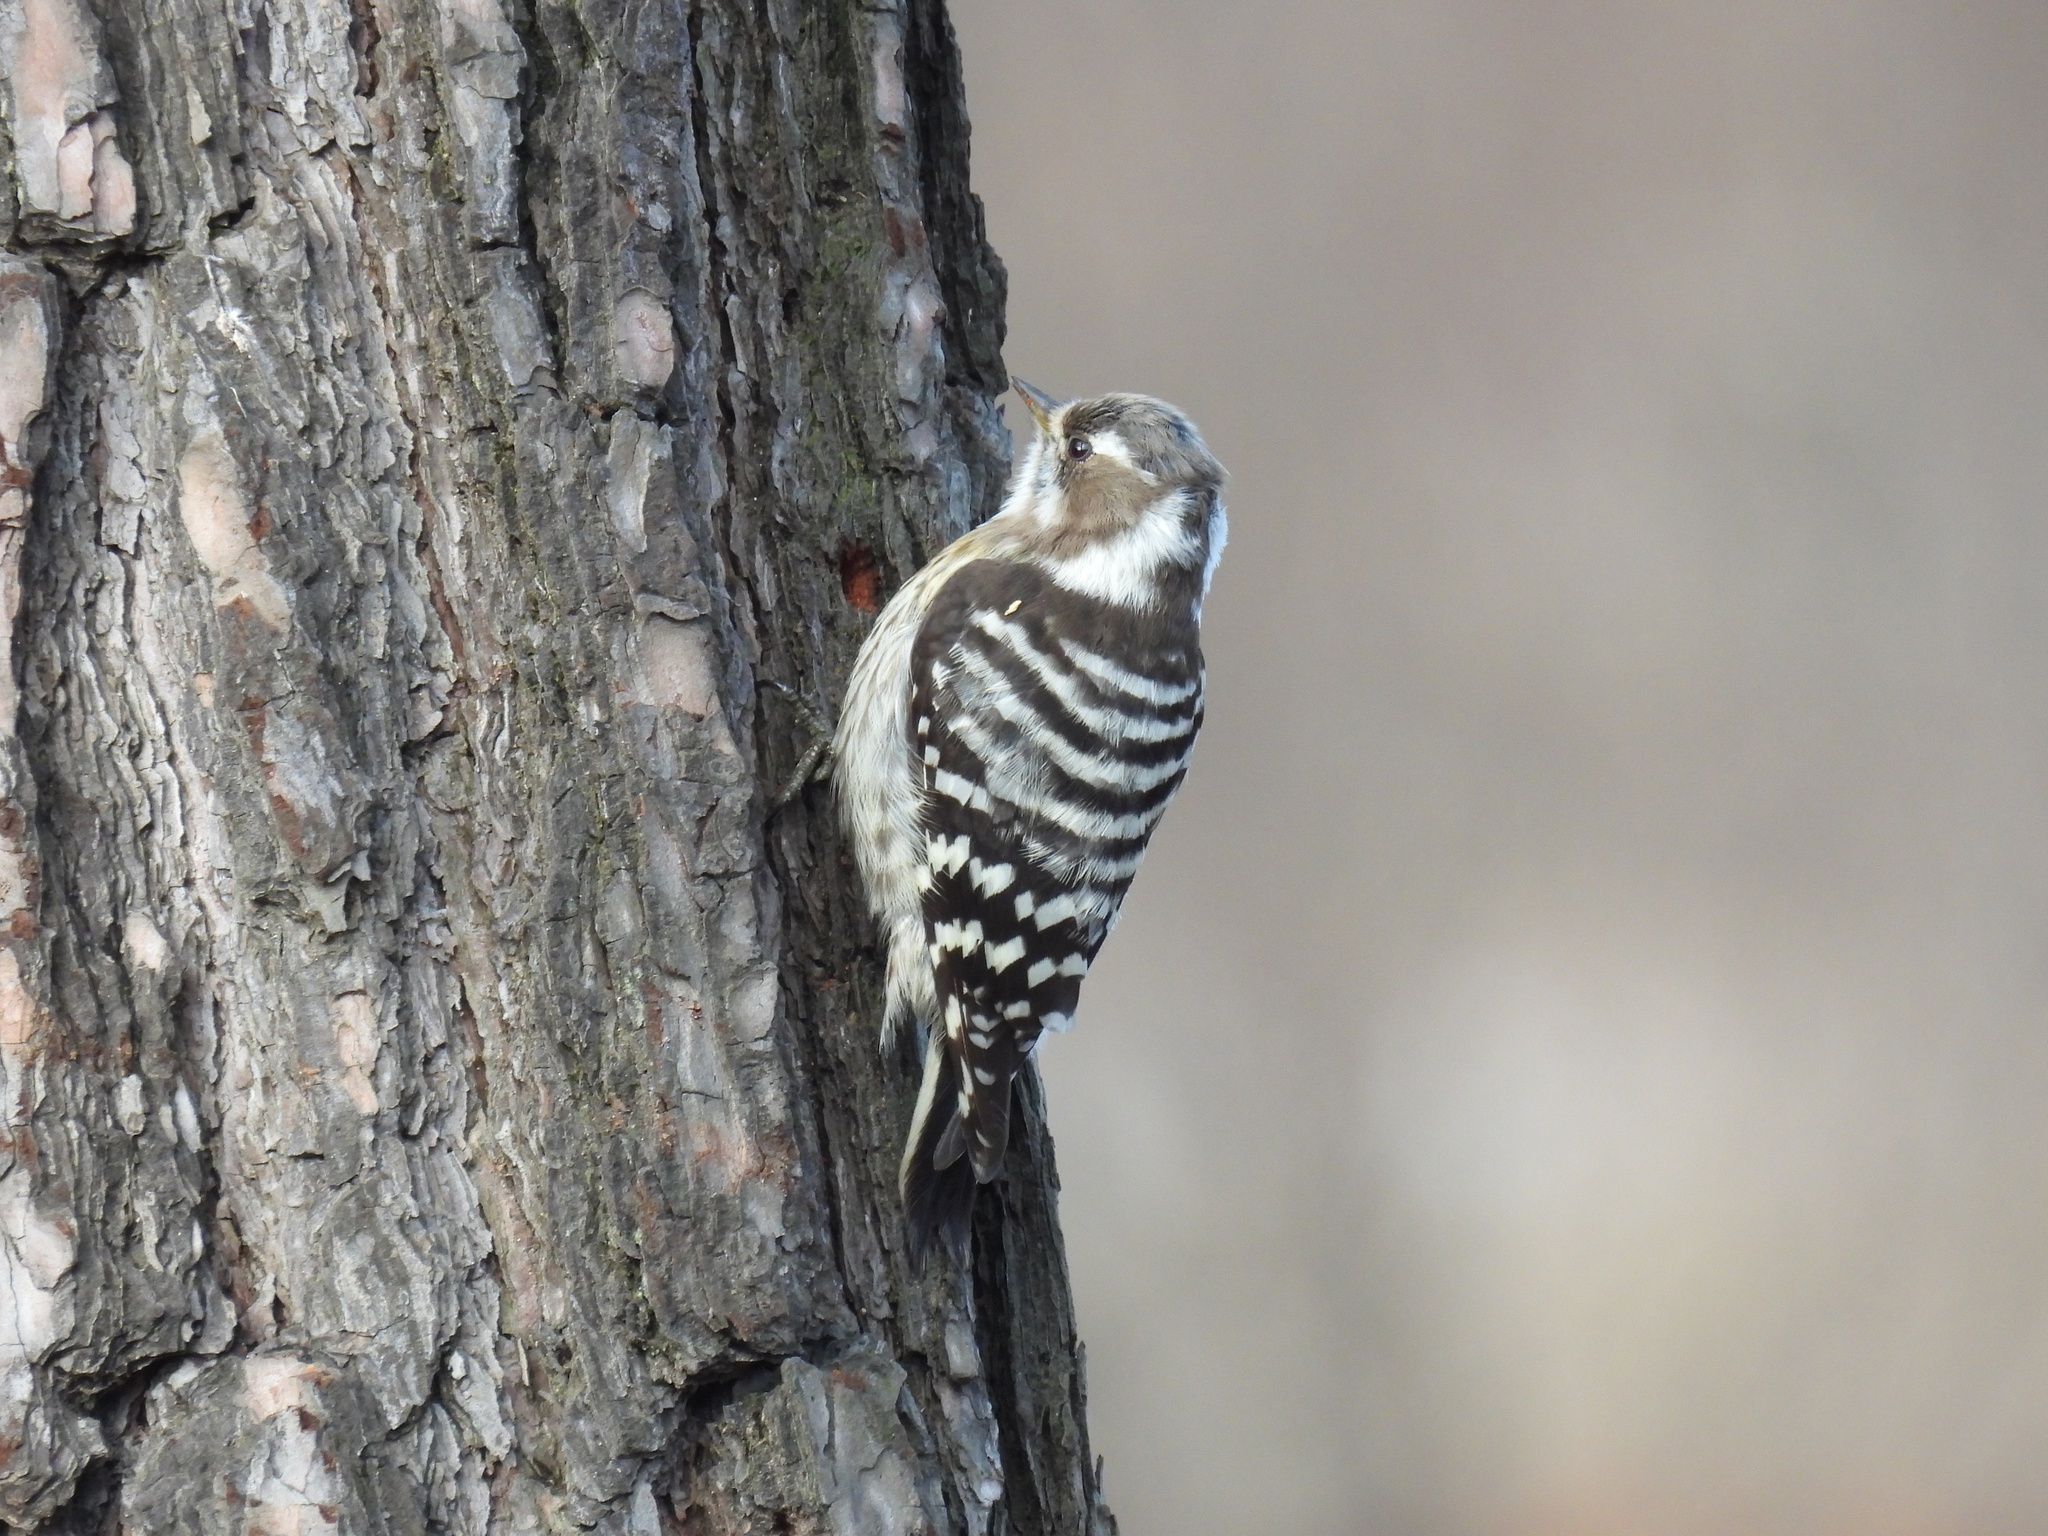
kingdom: Animalia
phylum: Chordata
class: Aves
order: Piciformes
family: Picidae
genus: Yungipicus
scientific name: Yungipicus kizuki
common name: Japanese pygmy woodpecker
